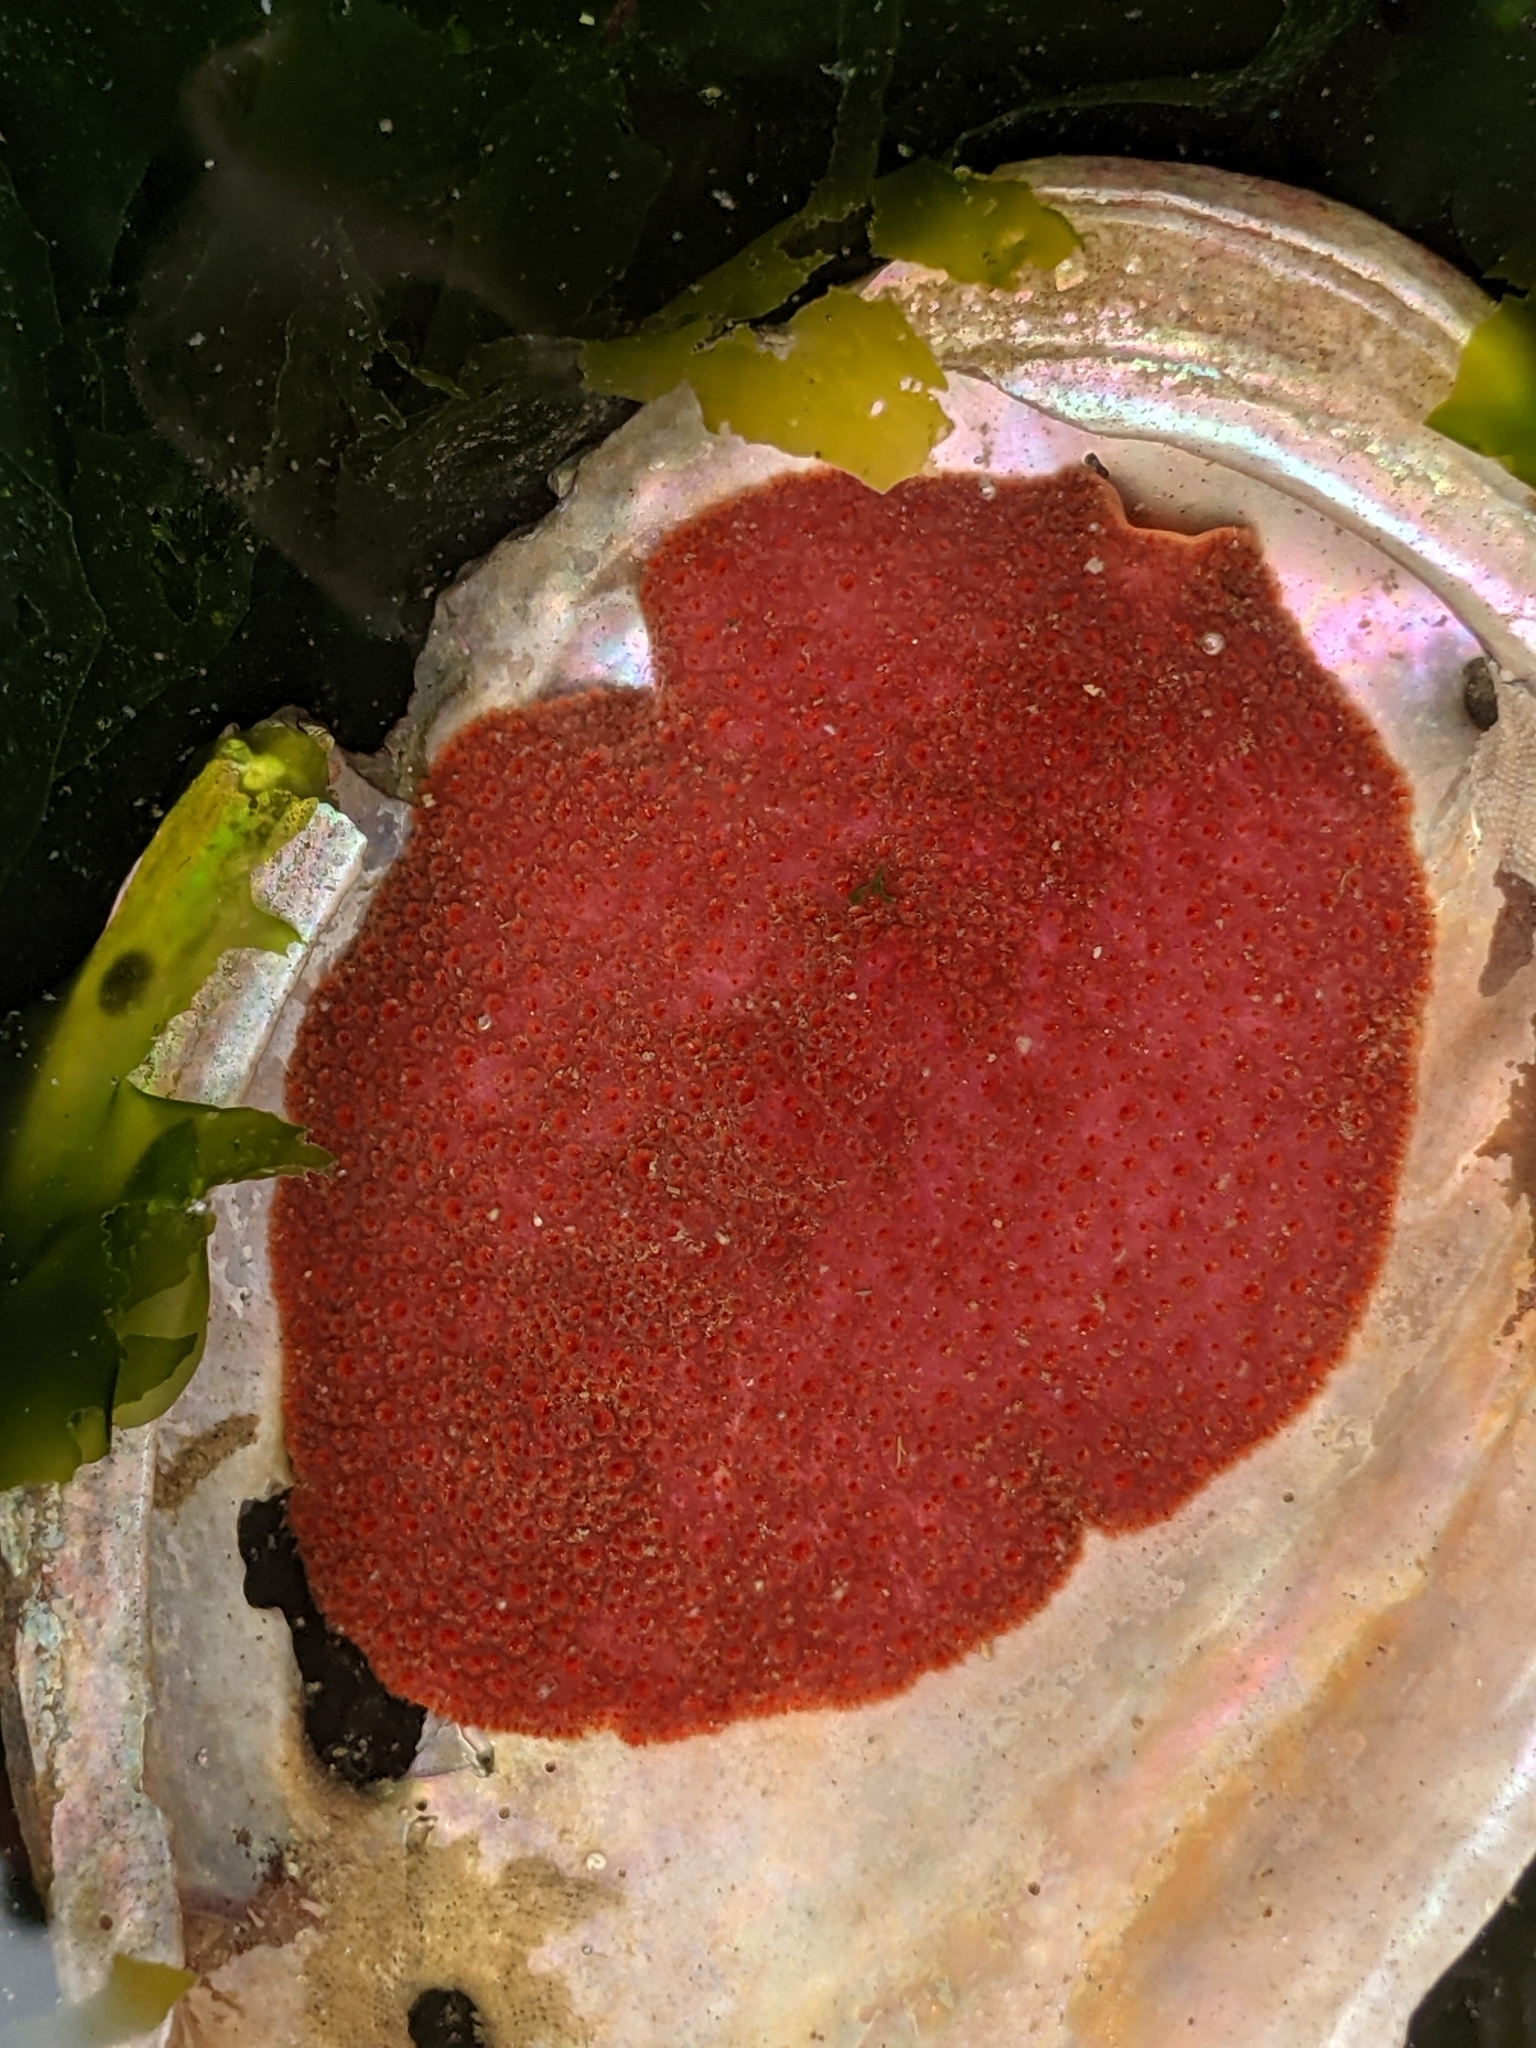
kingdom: Animalia
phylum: Mollusca
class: Polyplacophora
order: Chitonida
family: Acanthochitonidae
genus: Cryptochiton
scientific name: Cryptochiton stelleri
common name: Giant pacific chiton
